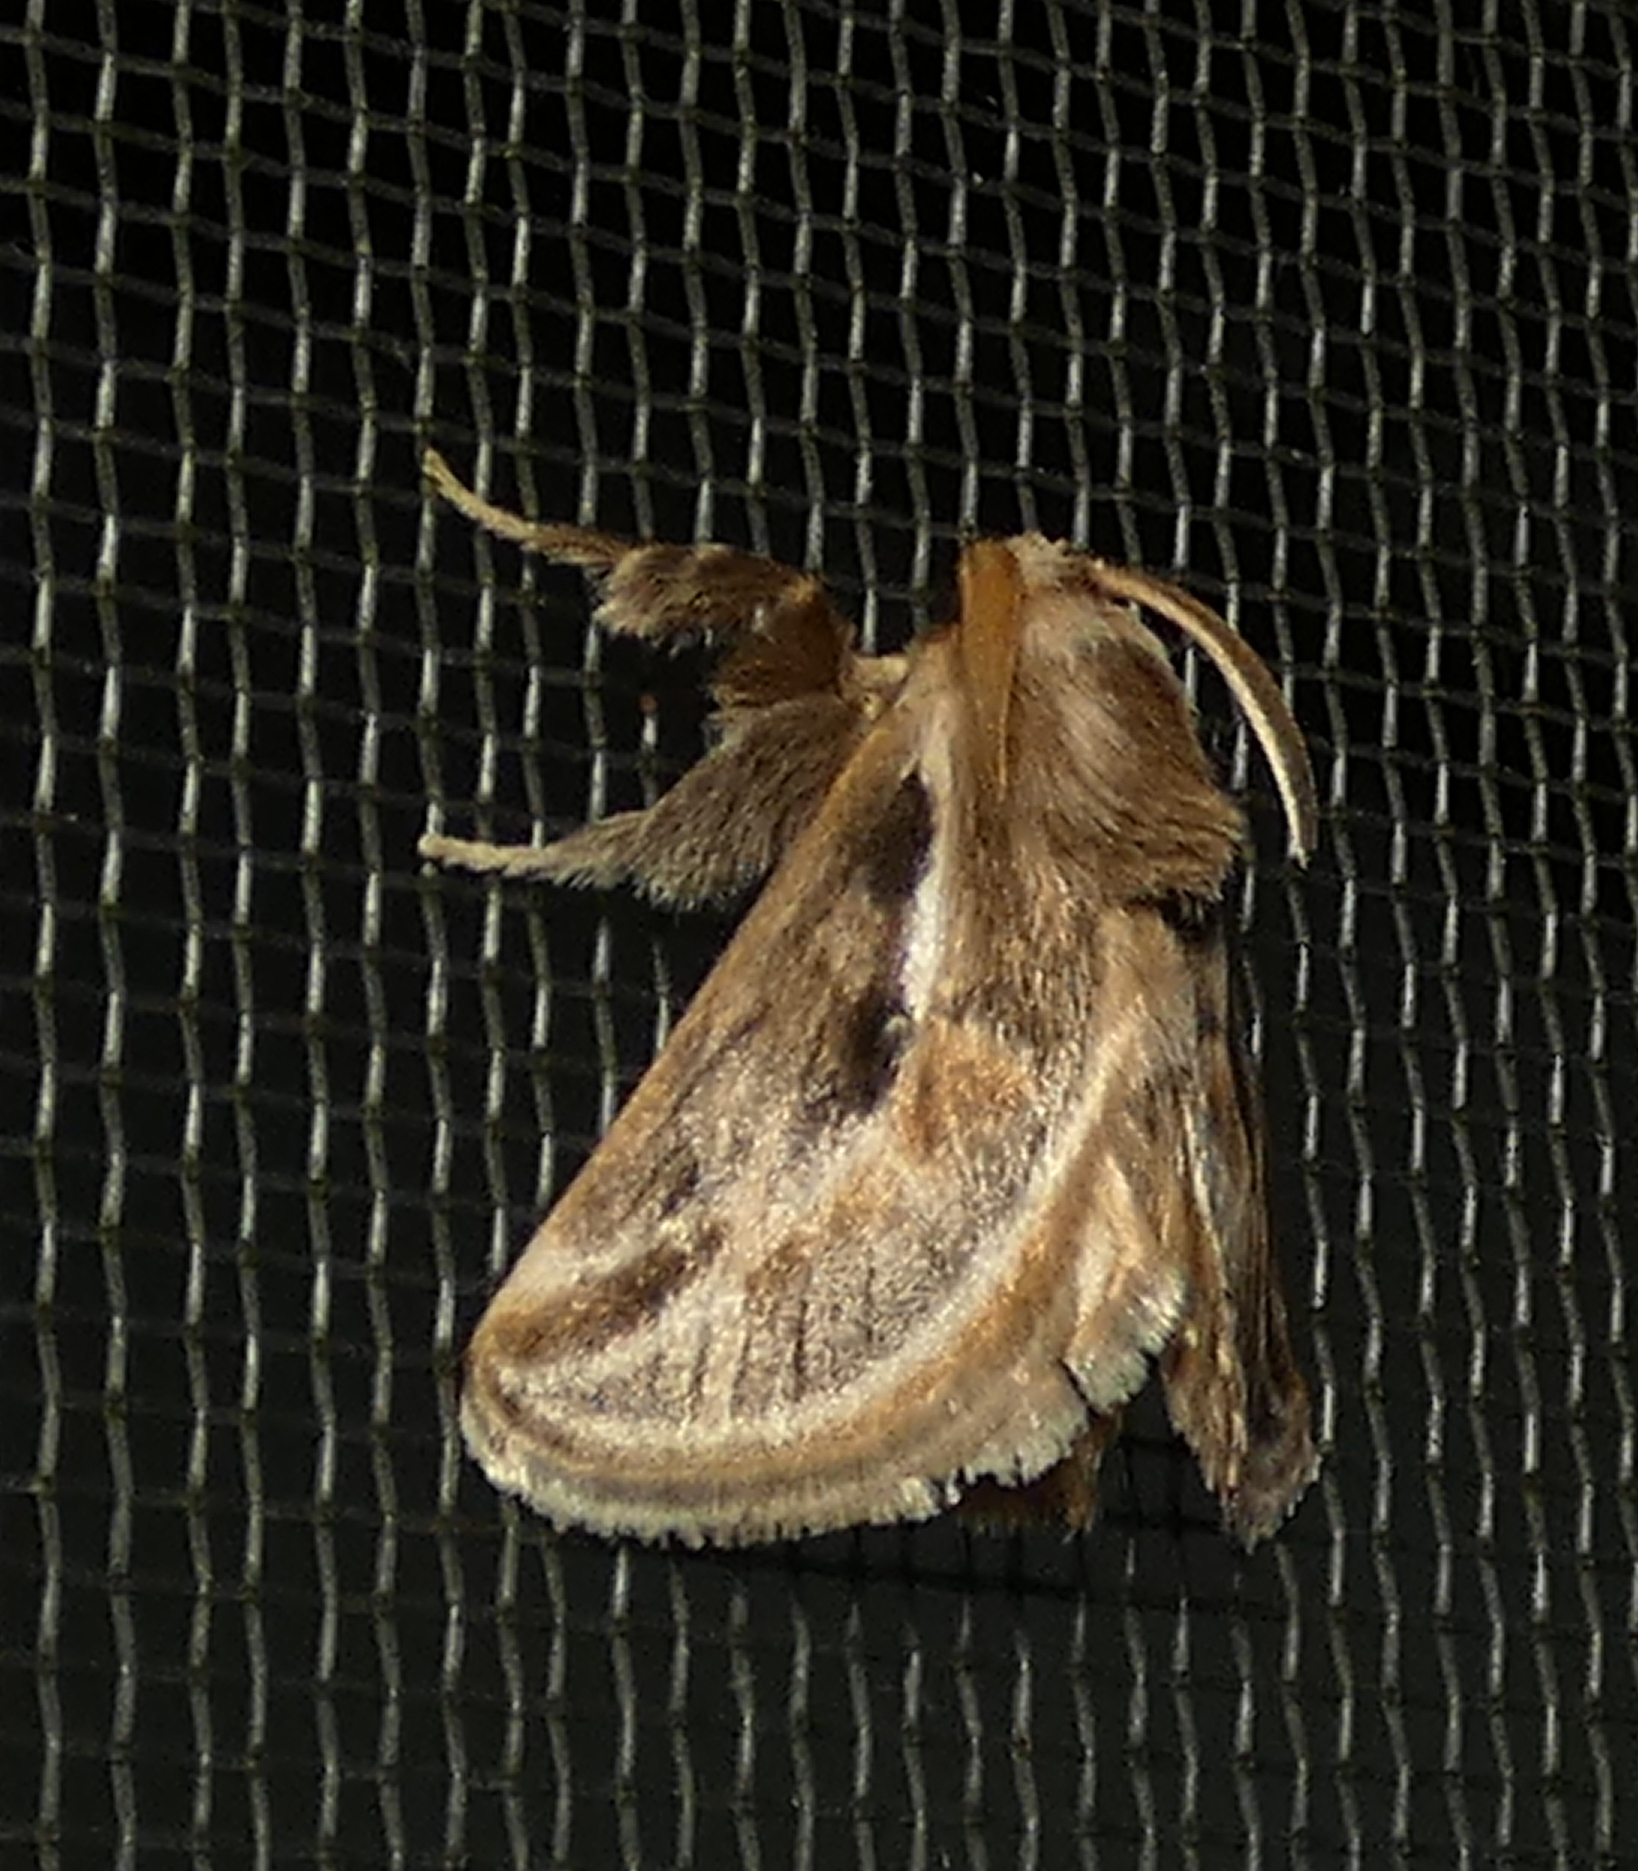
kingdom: Animalia
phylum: Arthropoda
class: Insecta
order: Lepidoptera
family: Limacodidae
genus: Perola
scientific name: Perola brumalis
